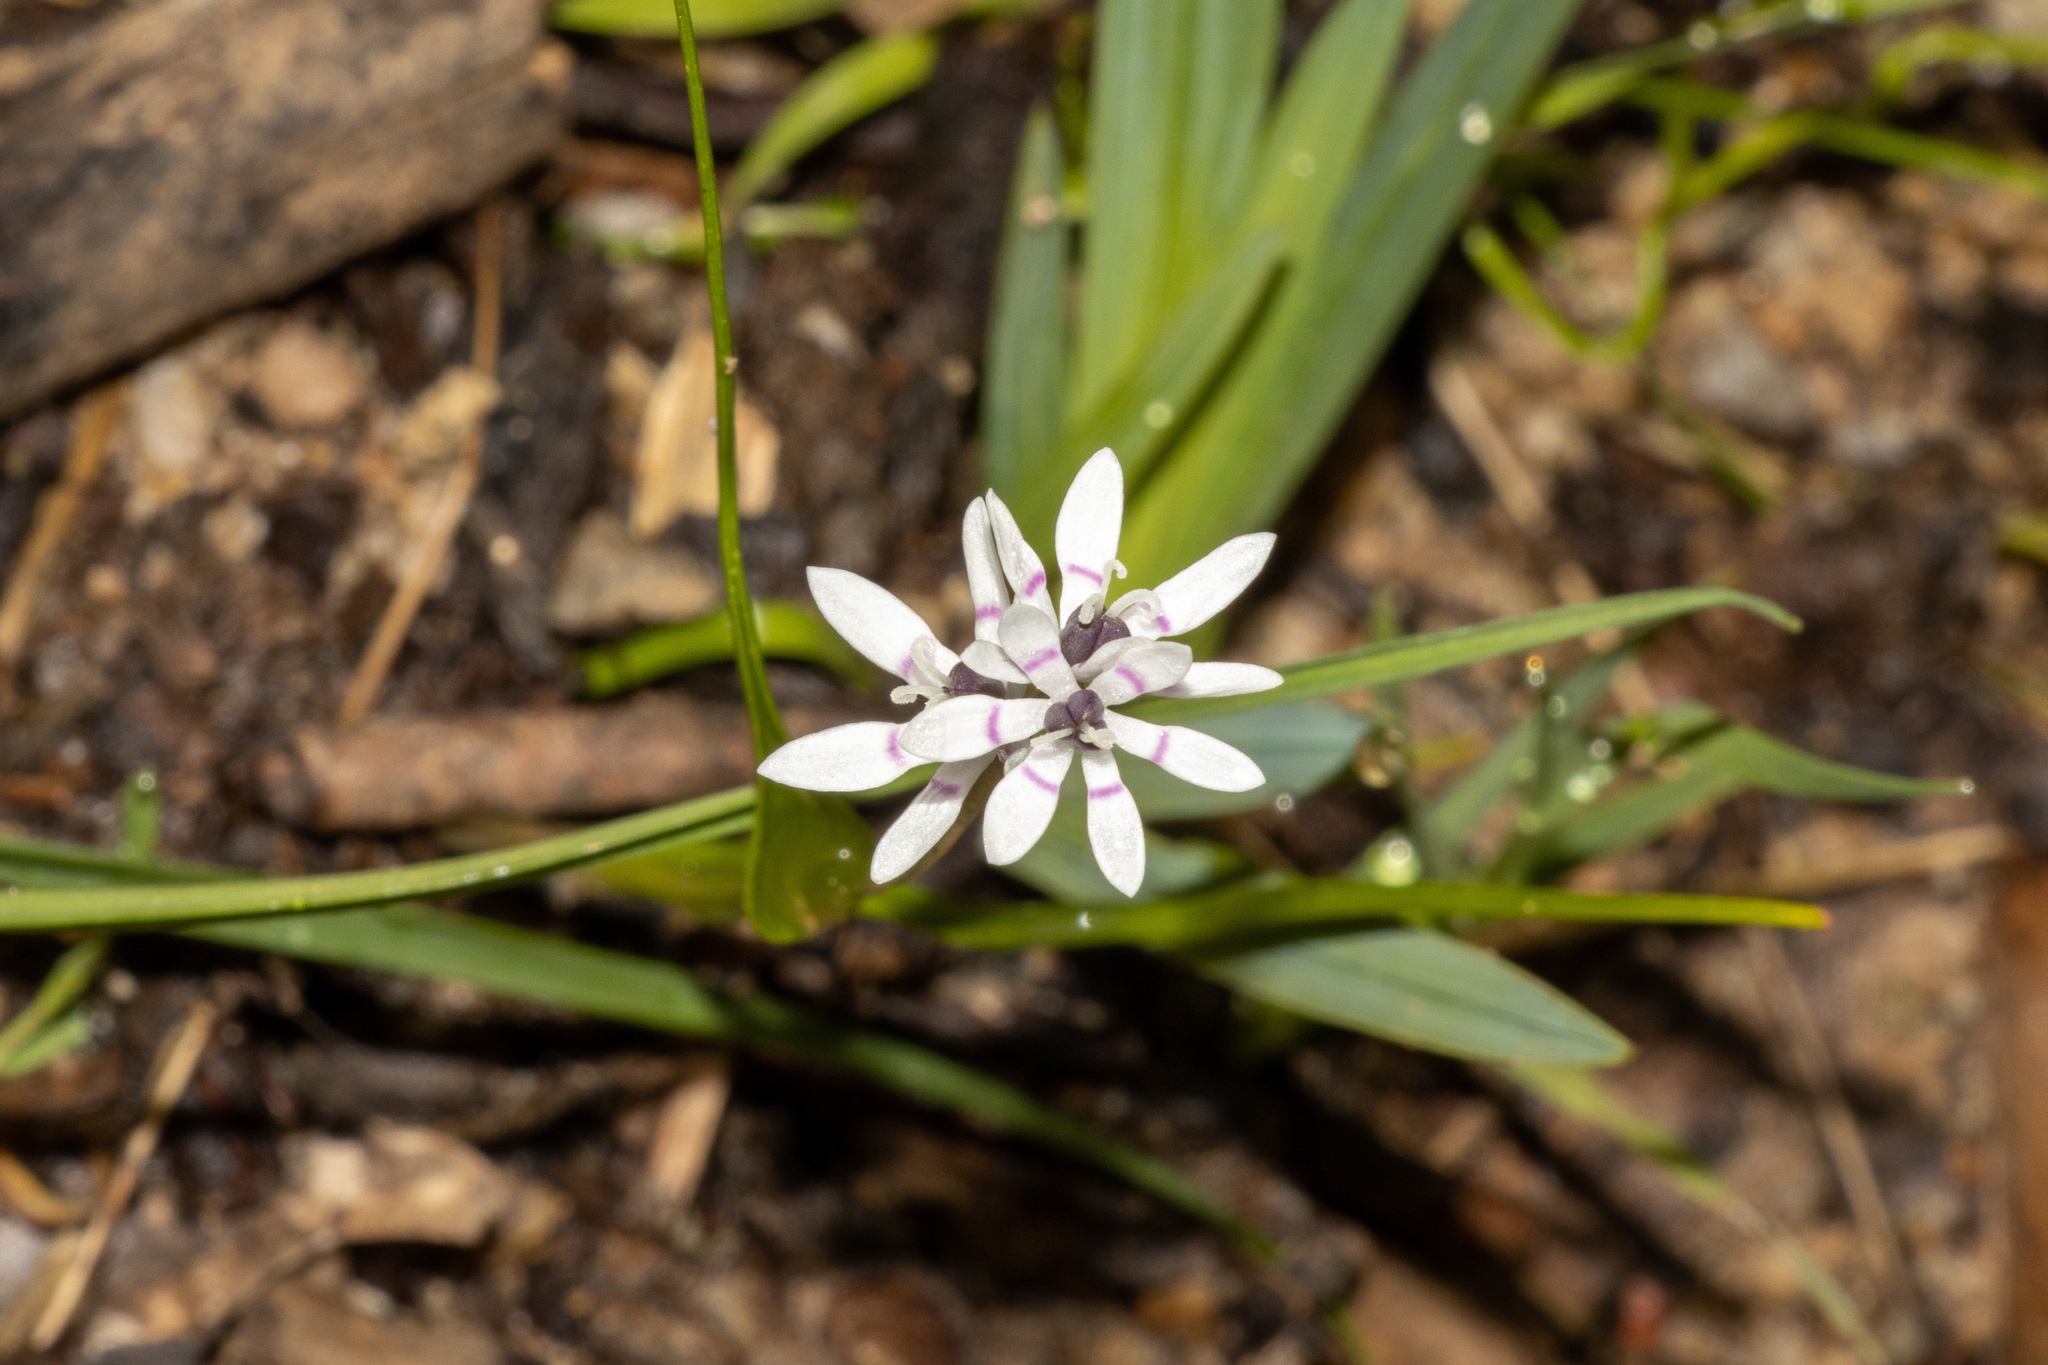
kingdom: Plantae
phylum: Tracheophyta
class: Liliopsida
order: Liliales
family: Colchicaceae
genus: Wurmbea
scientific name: Wurmbea dioica
